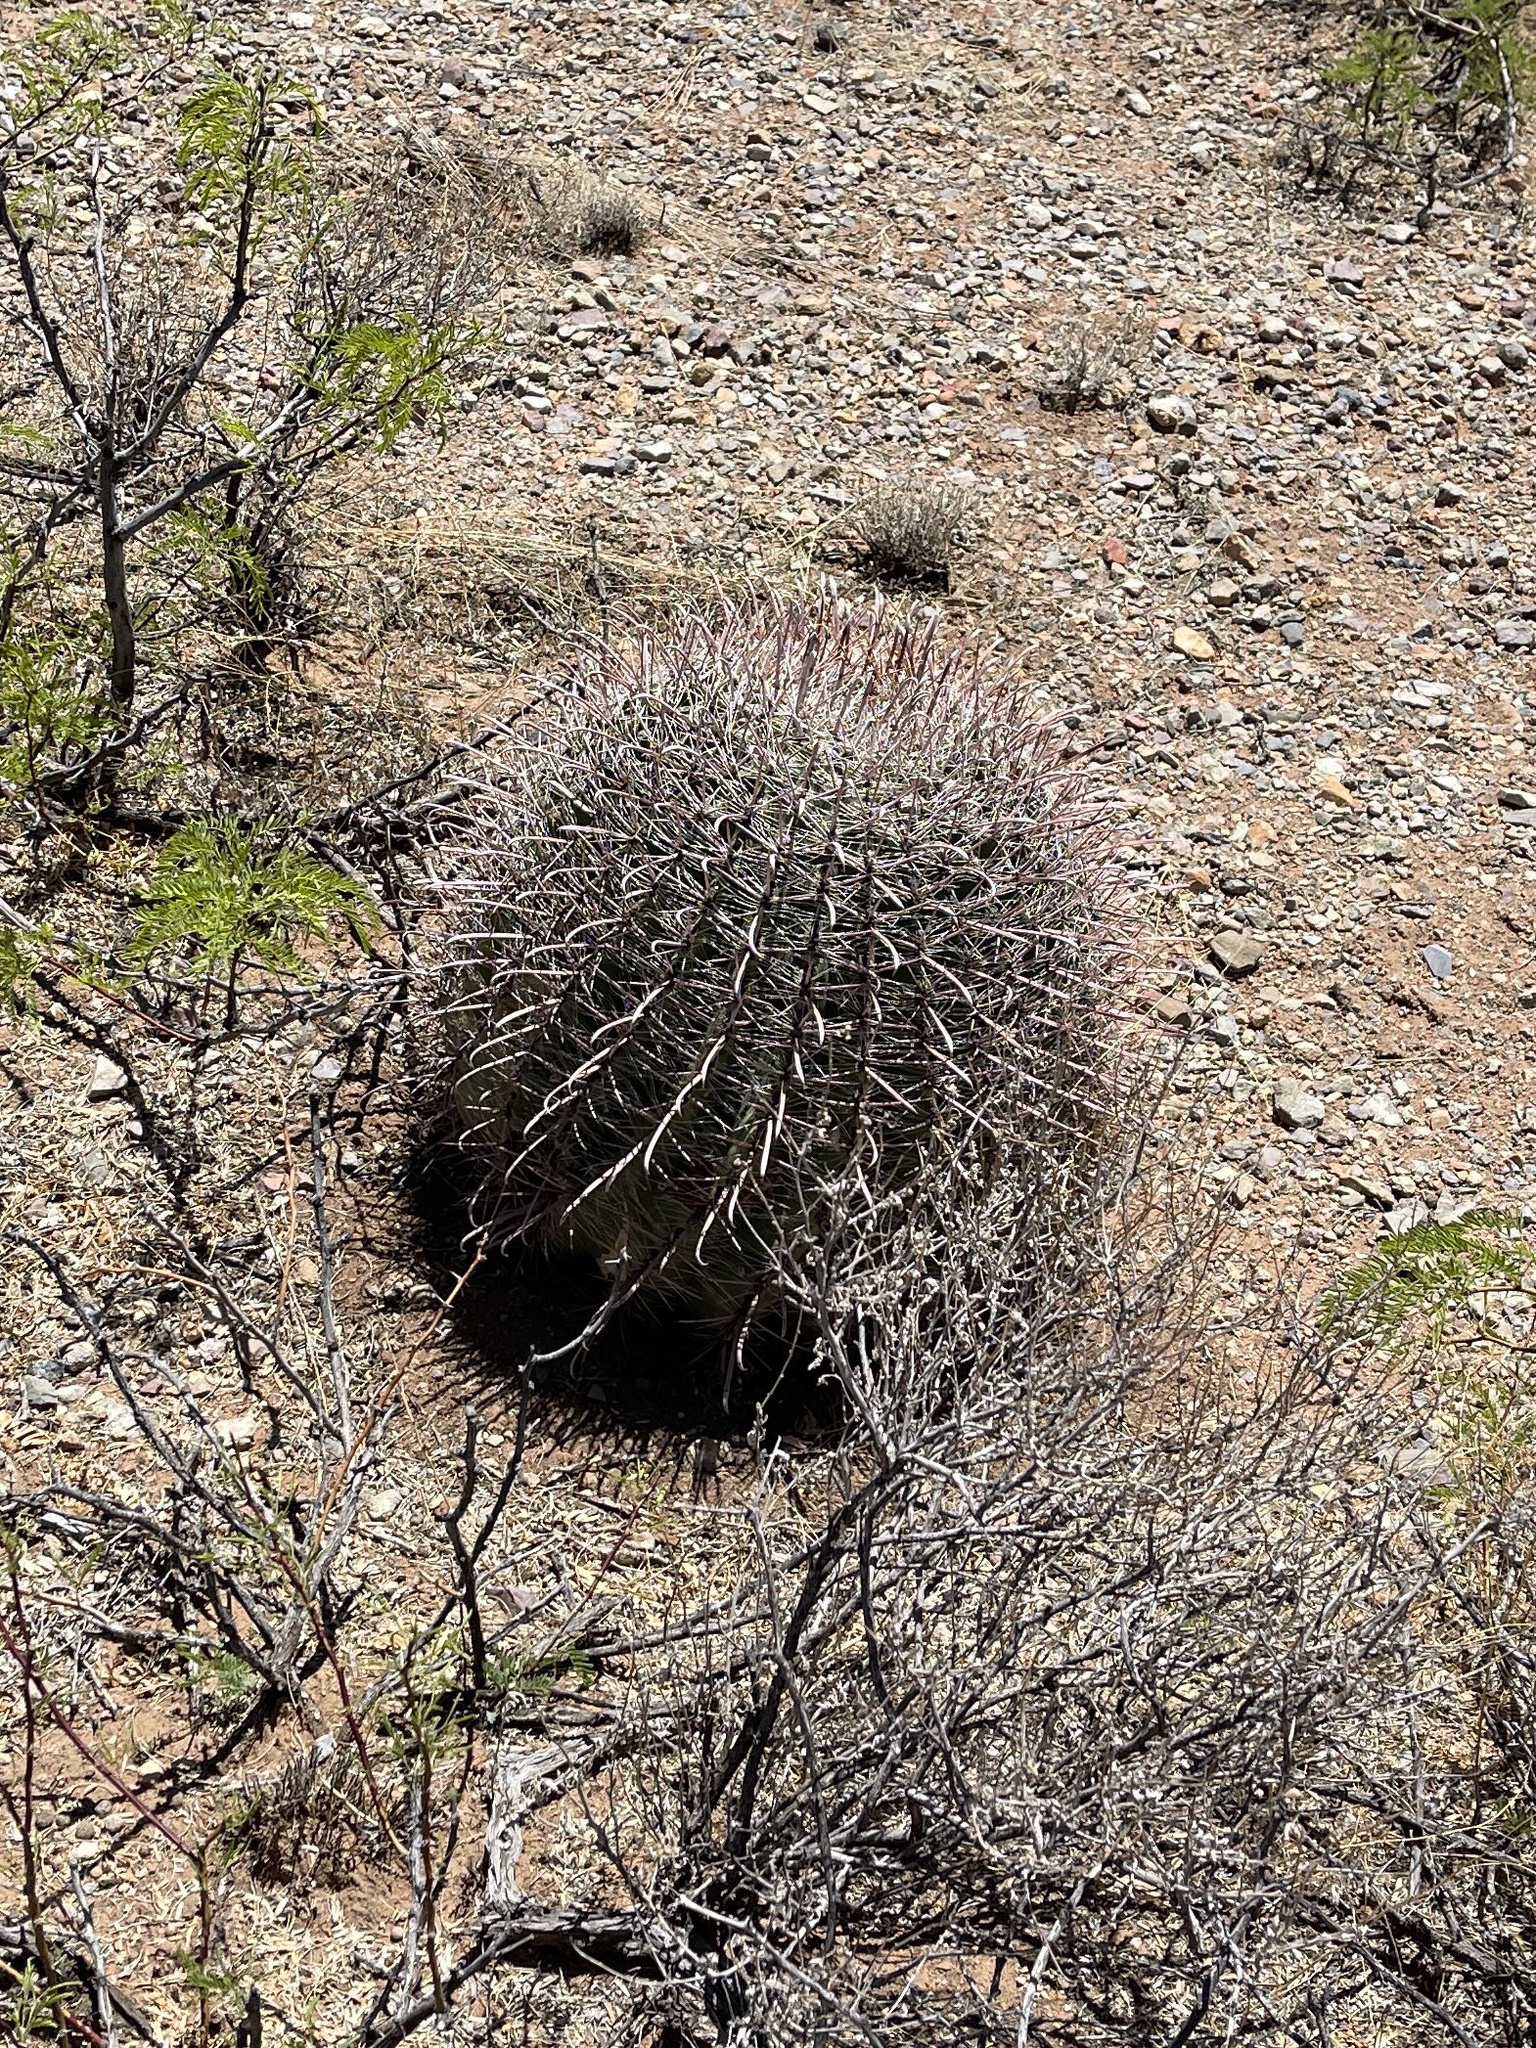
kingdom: Plantae
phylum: Tracheophyta
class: Magnoliopsida
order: Caryophyllales
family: Cactaceae
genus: Ferocactus
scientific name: Ferocactus wislizeni
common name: Candy barrel cactus
